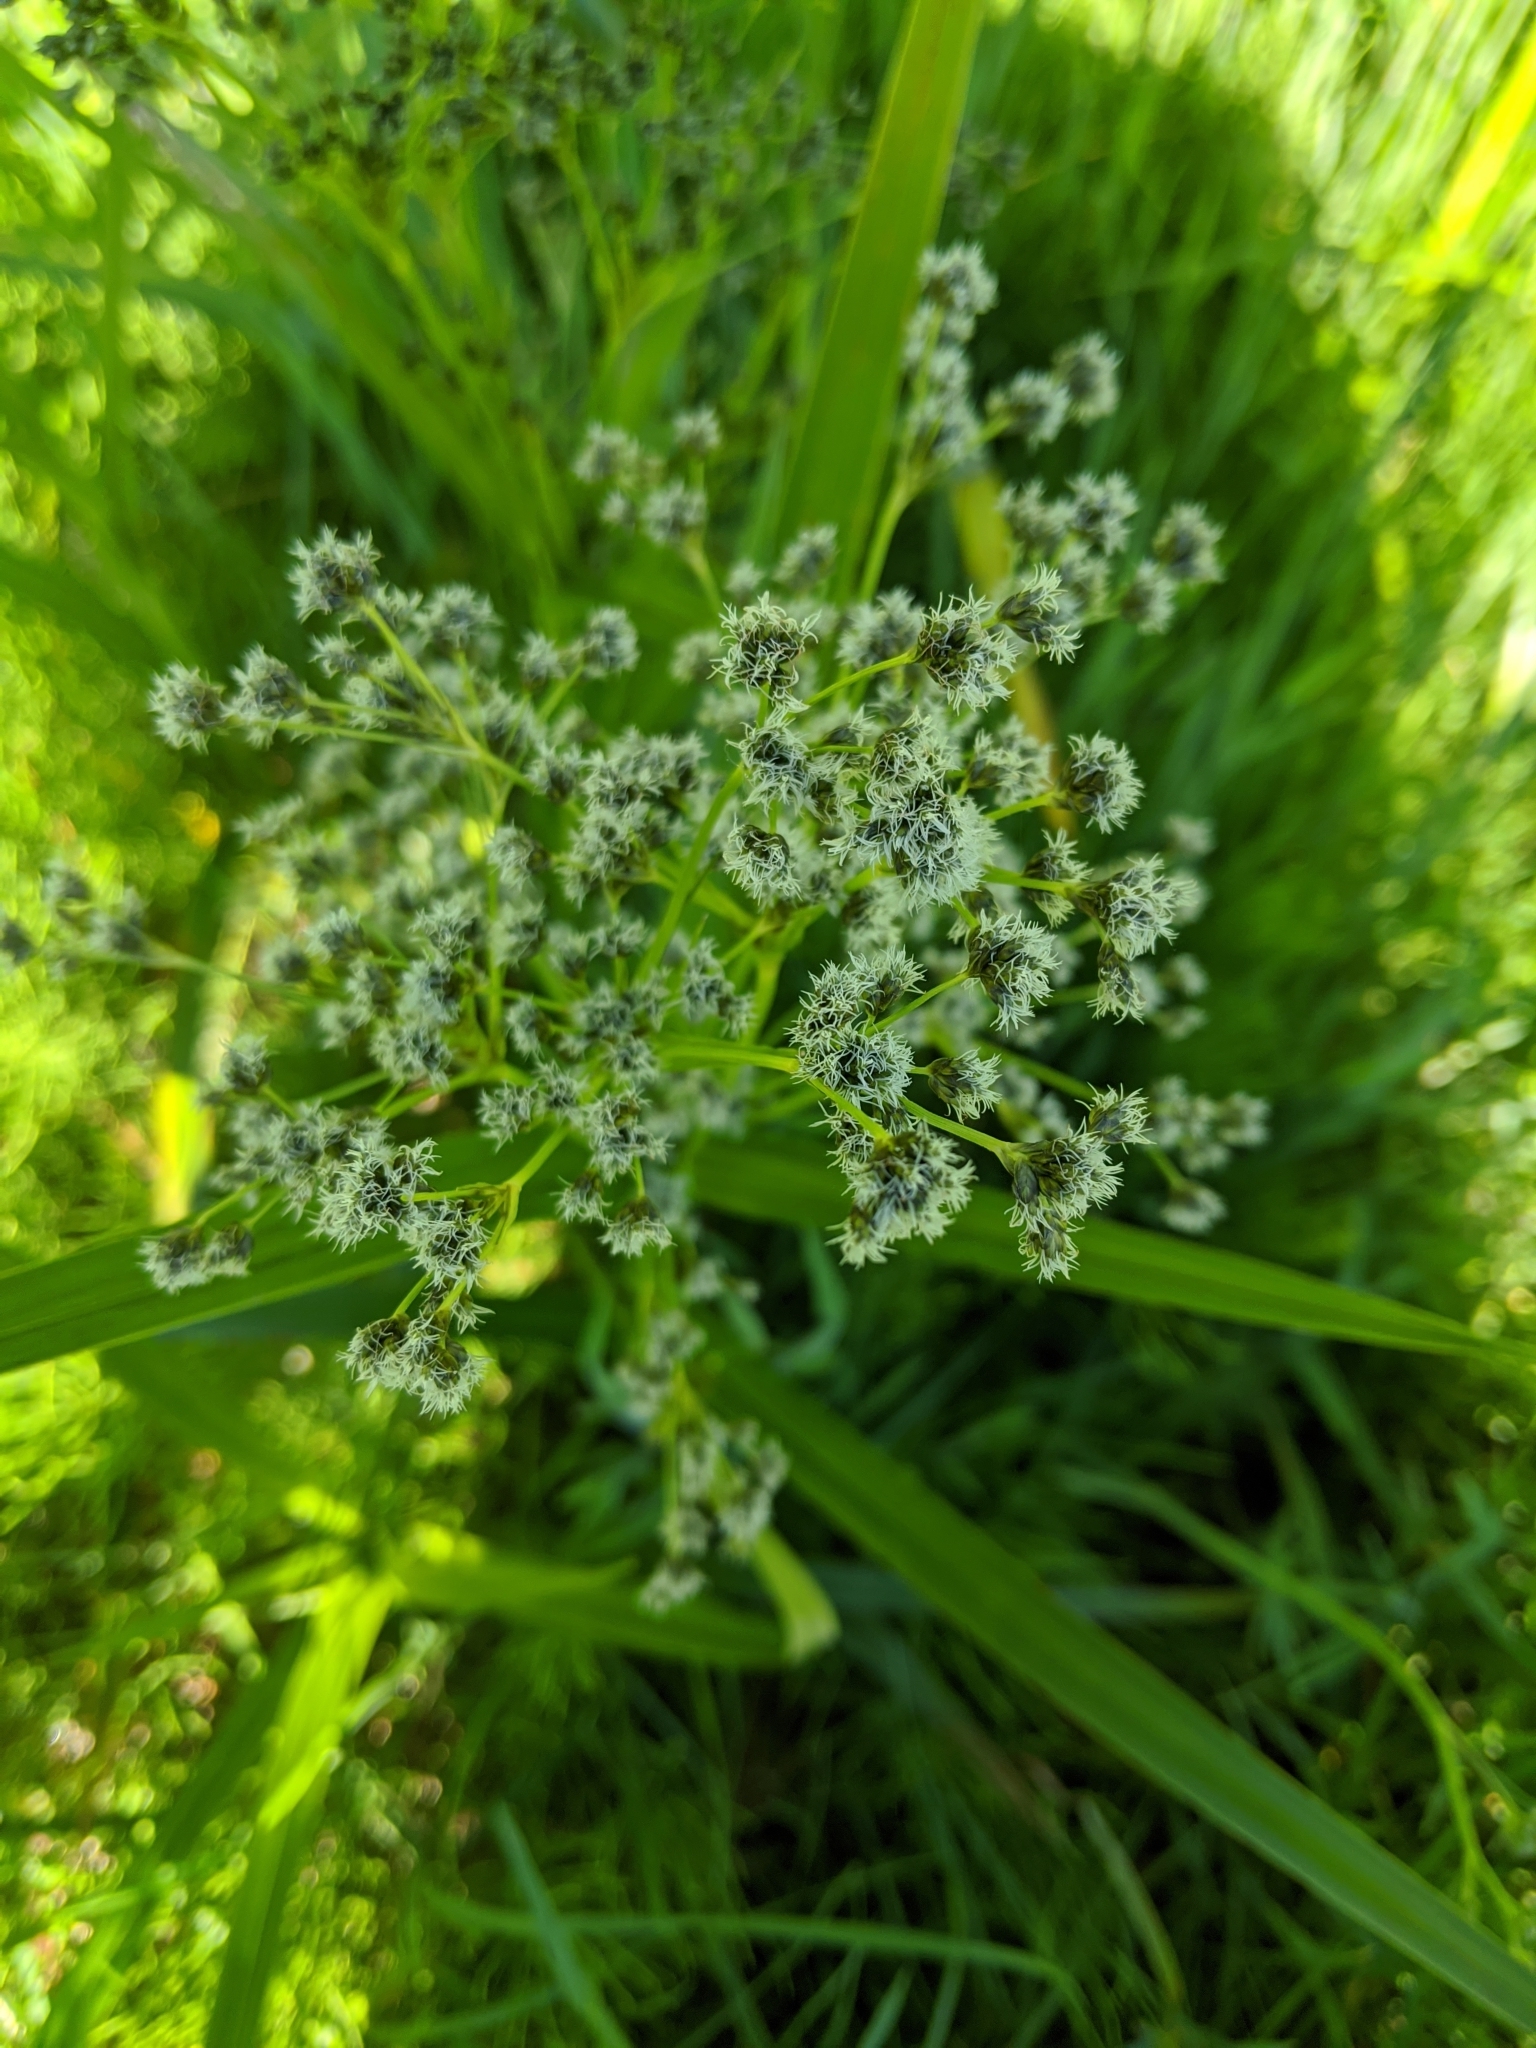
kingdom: Plantae
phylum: Tracheophyta
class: Liliopsida
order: Poales
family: Cyperaceae
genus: Scirpus
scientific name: Scirpus microcarpus
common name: Panicled bulrush
